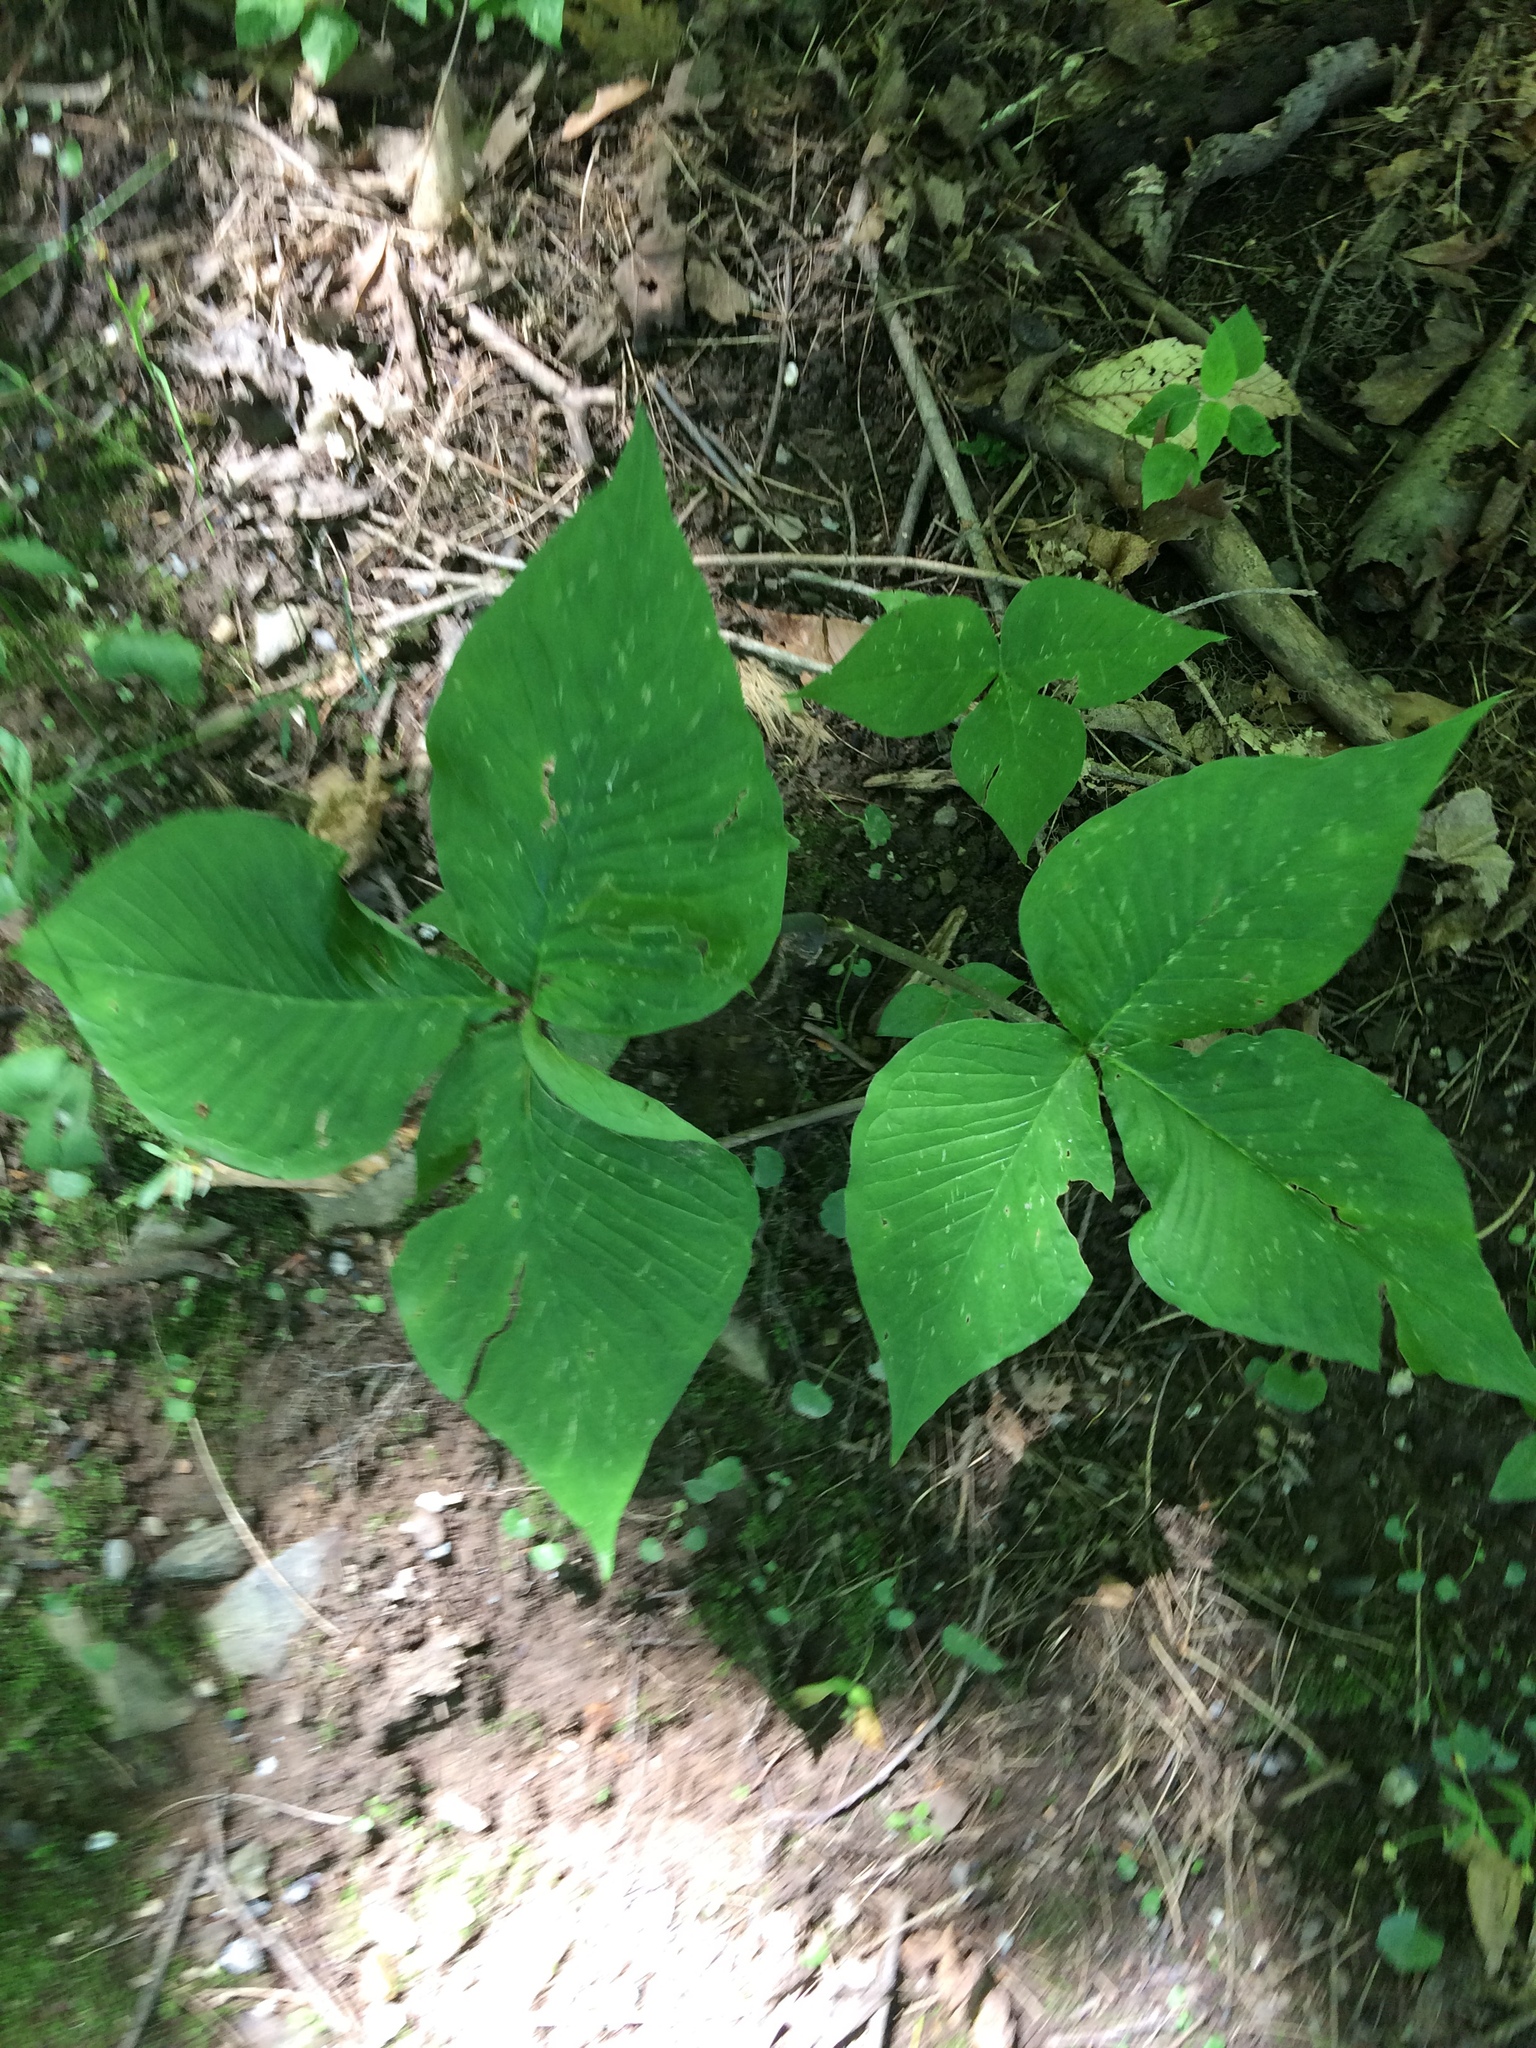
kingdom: Plantae
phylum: Tracheophyta
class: Liliopsida
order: Alismatales
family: Araceae
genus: Arisaema
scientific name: Arisaema triphyllum
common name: Jack-in-the-pulpit
